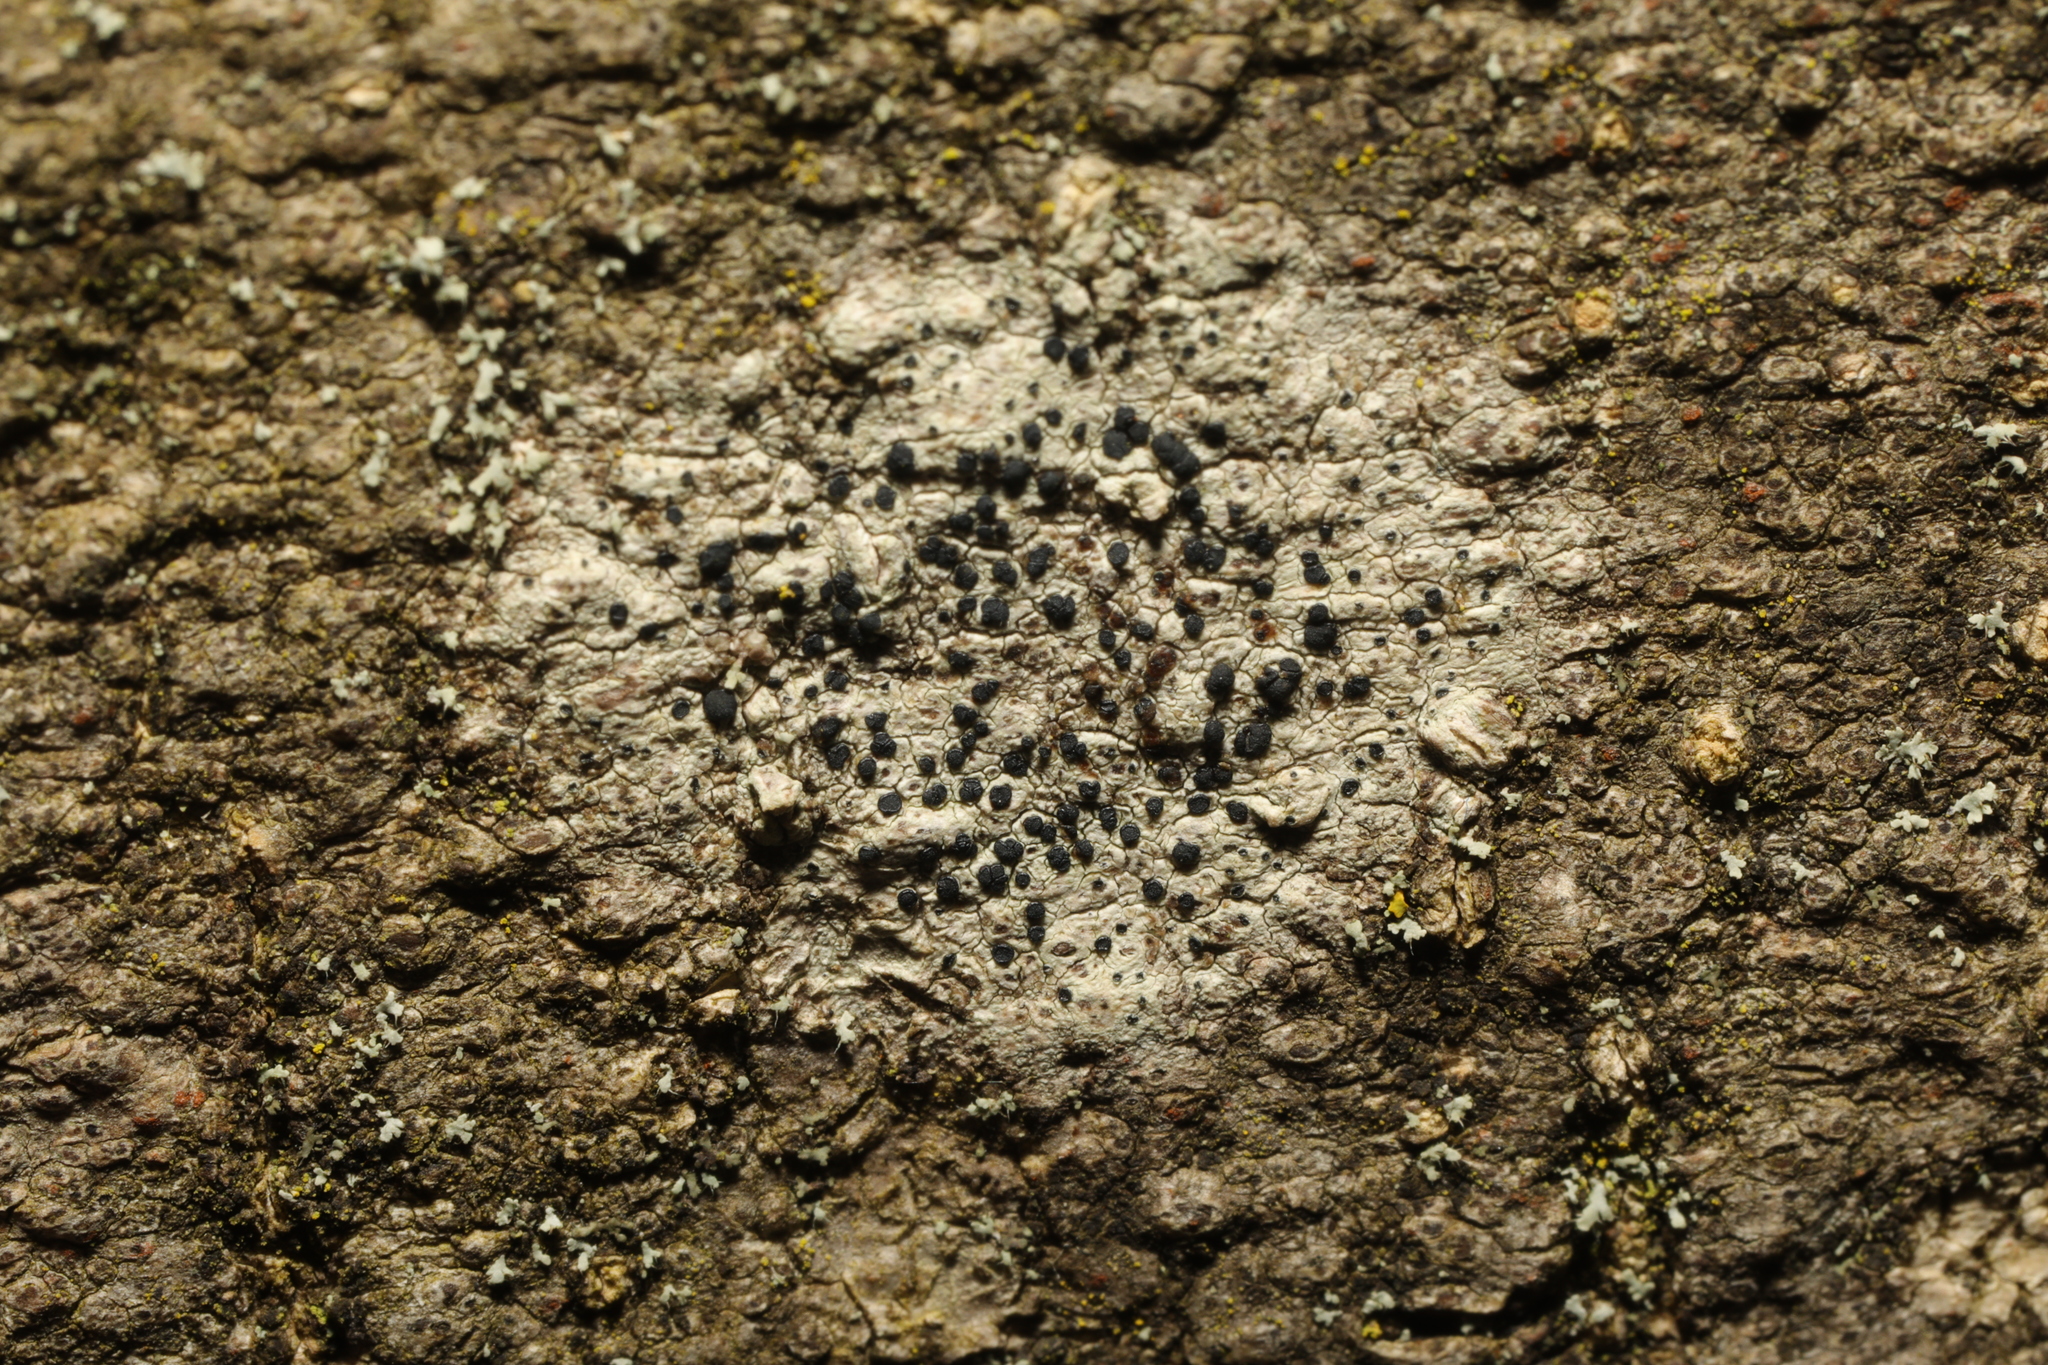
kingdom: Fungi
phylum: Ascomycota
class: Lecanoromycetes
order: Lecanorales
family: Lecanoraceae
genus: Lecidella
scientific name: Lecidella elaeochroma
